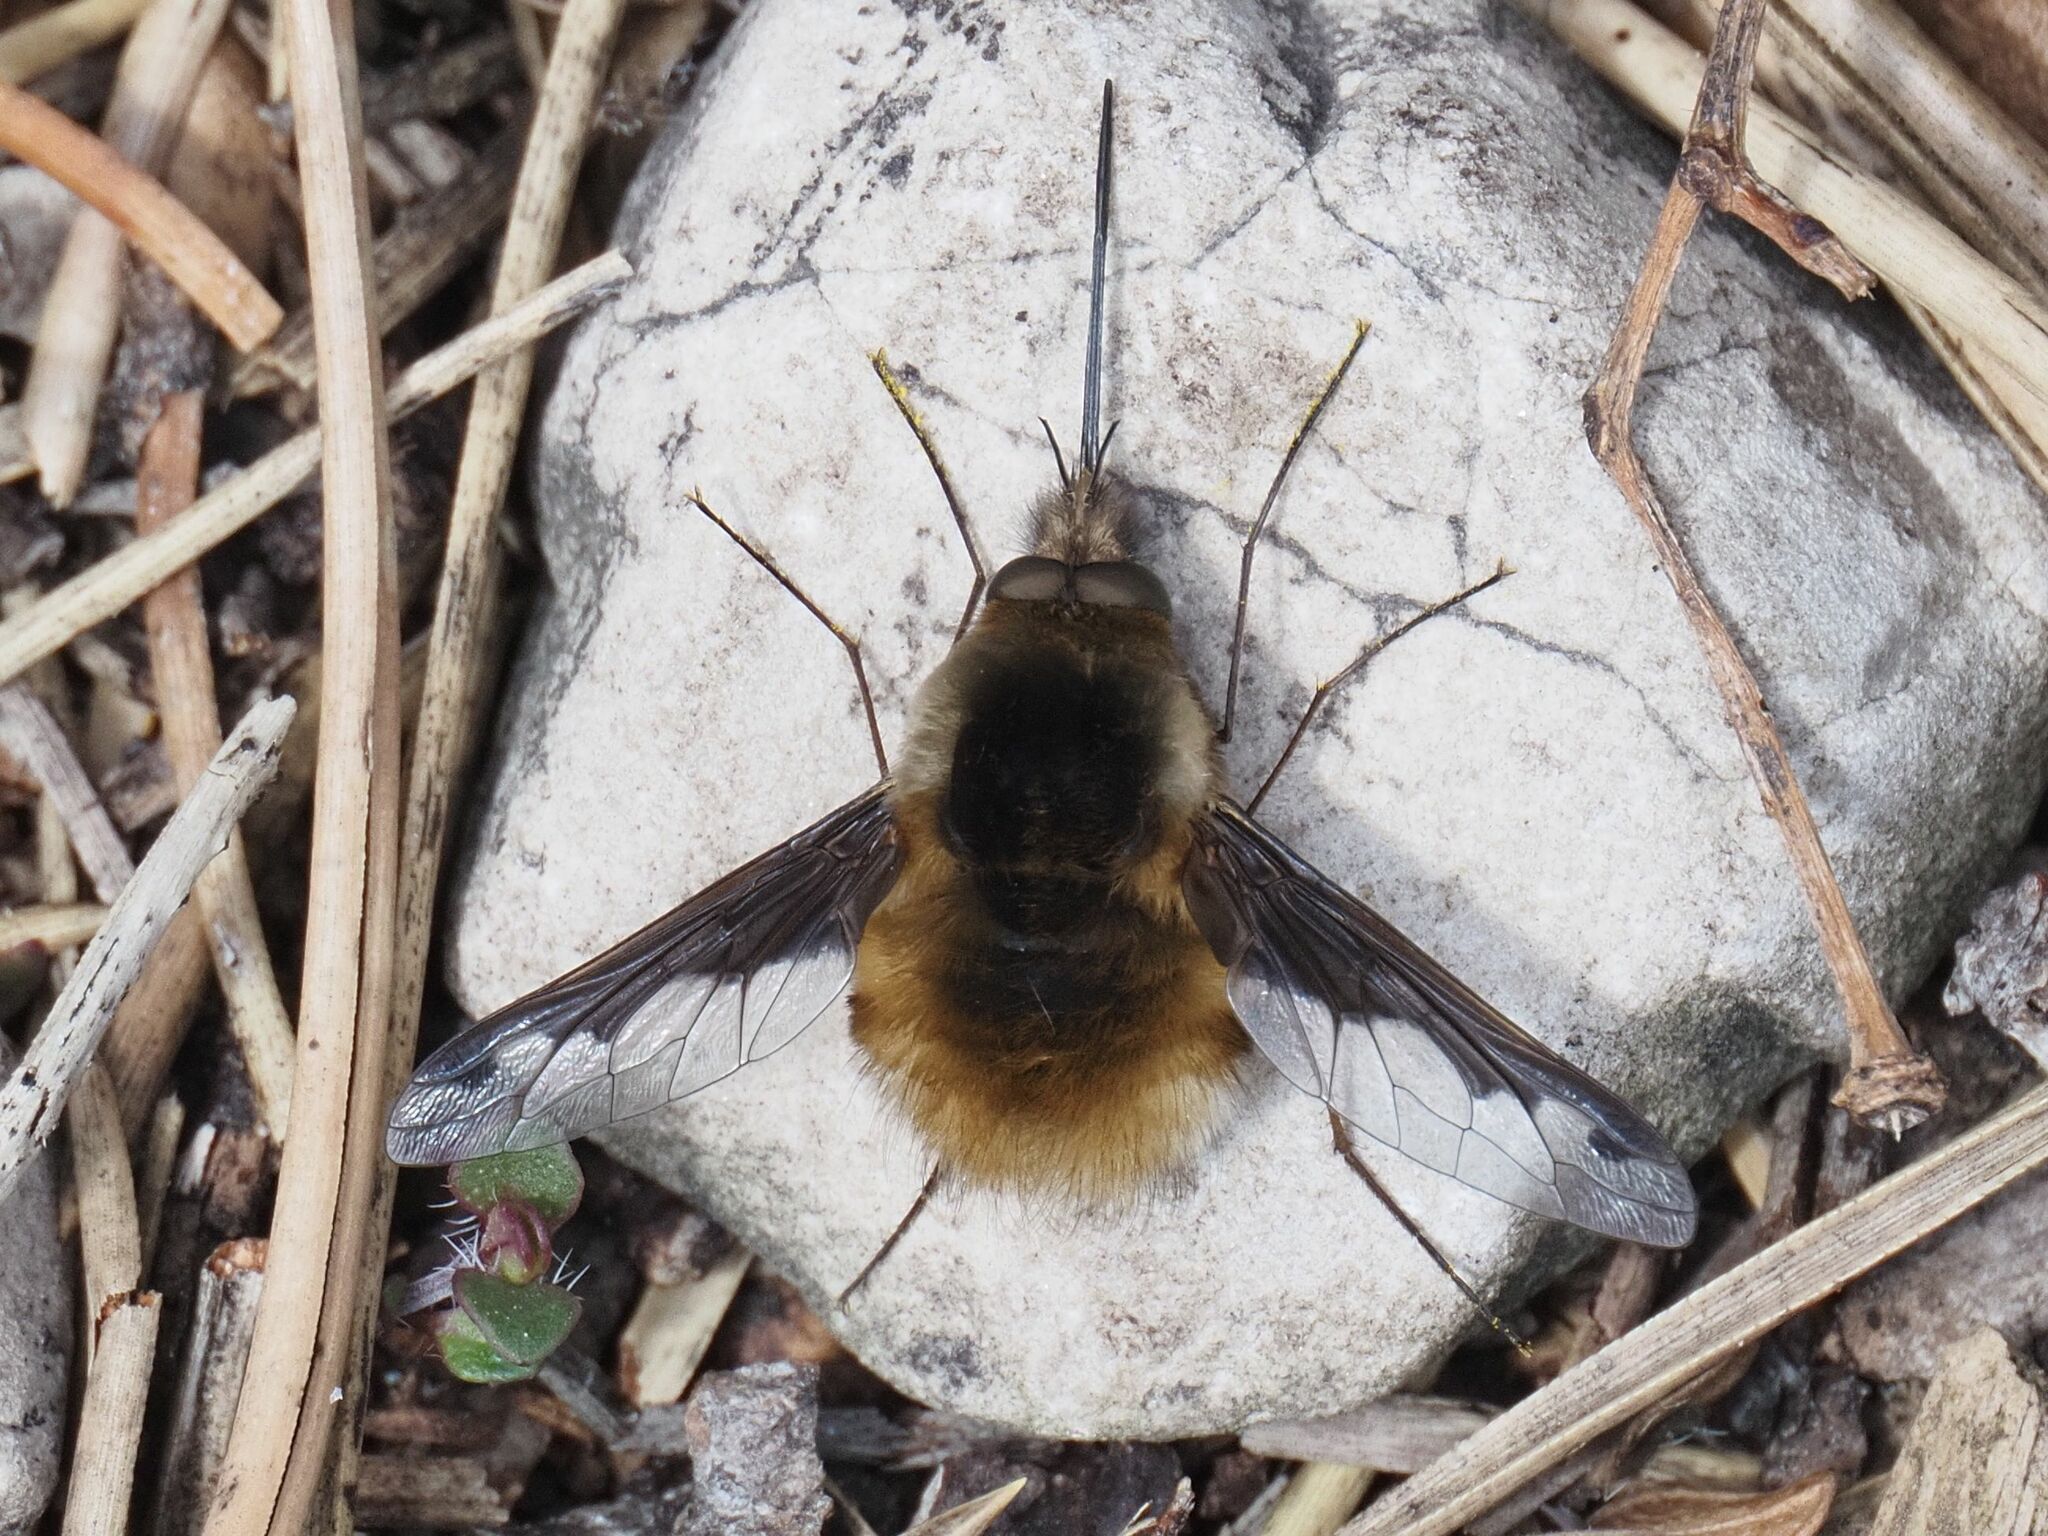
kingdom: Animalia
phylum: Arthropoda
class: Insecta
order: Diptera
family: Bombyliidae
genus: Bombylius
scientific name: Bombylius major
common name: Bee fly
